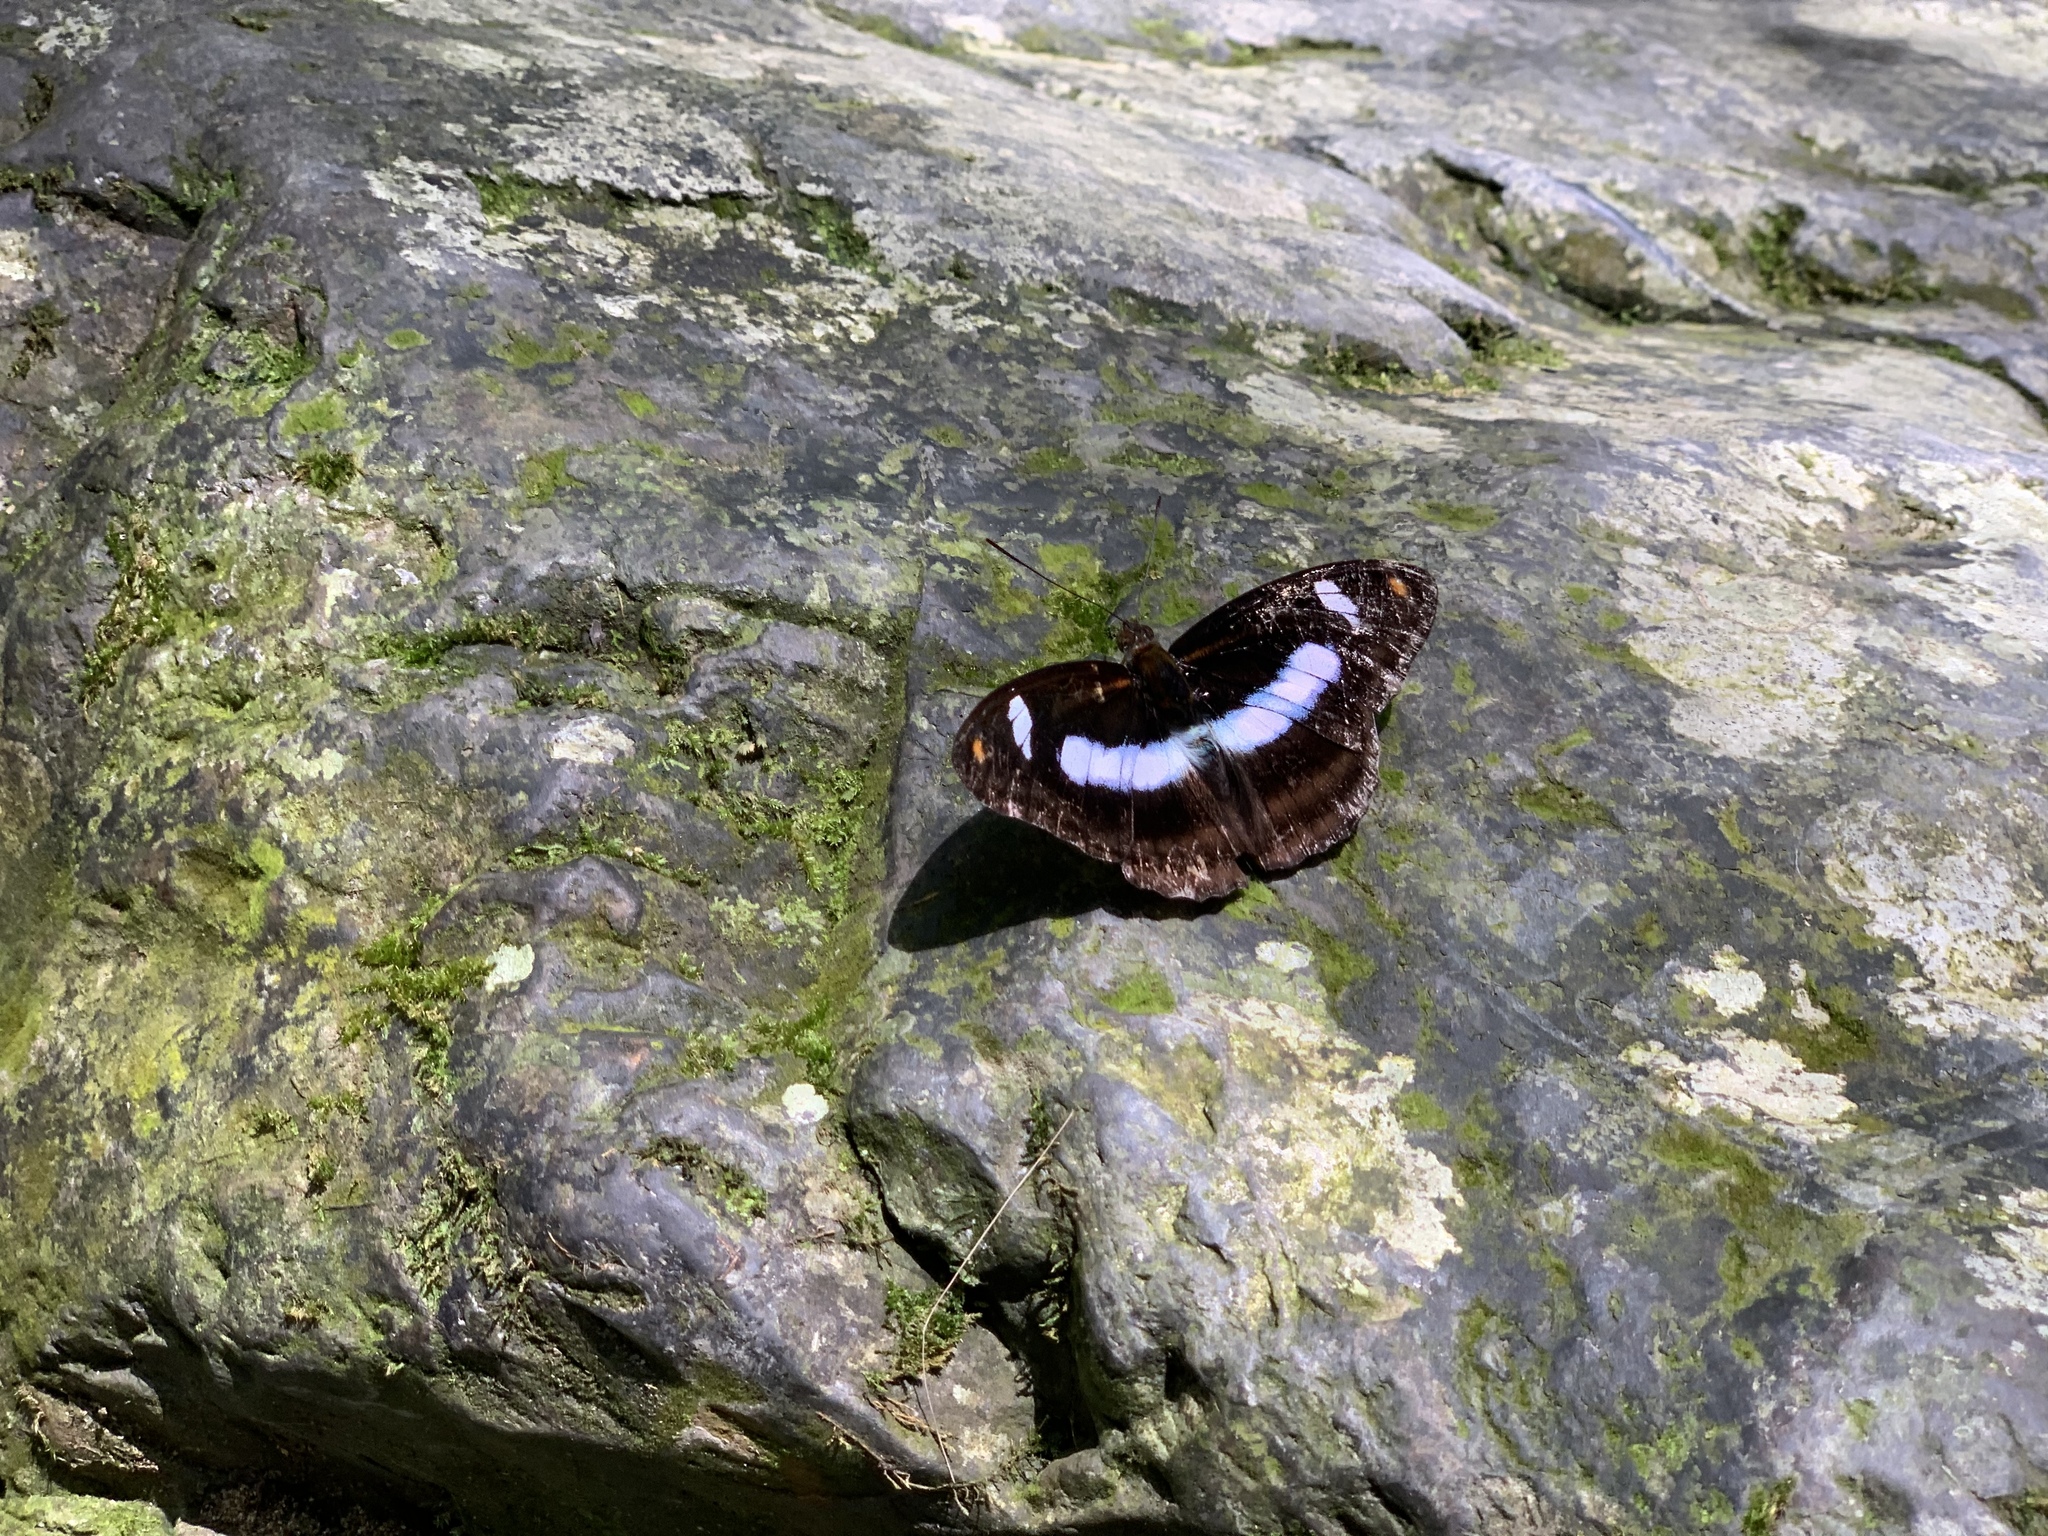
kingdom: Animalia
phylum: Arthropoda
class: Insecta
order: Lepidoptera
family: Nymphalidae
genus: Pantoporia
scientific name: Pantoporia cama
